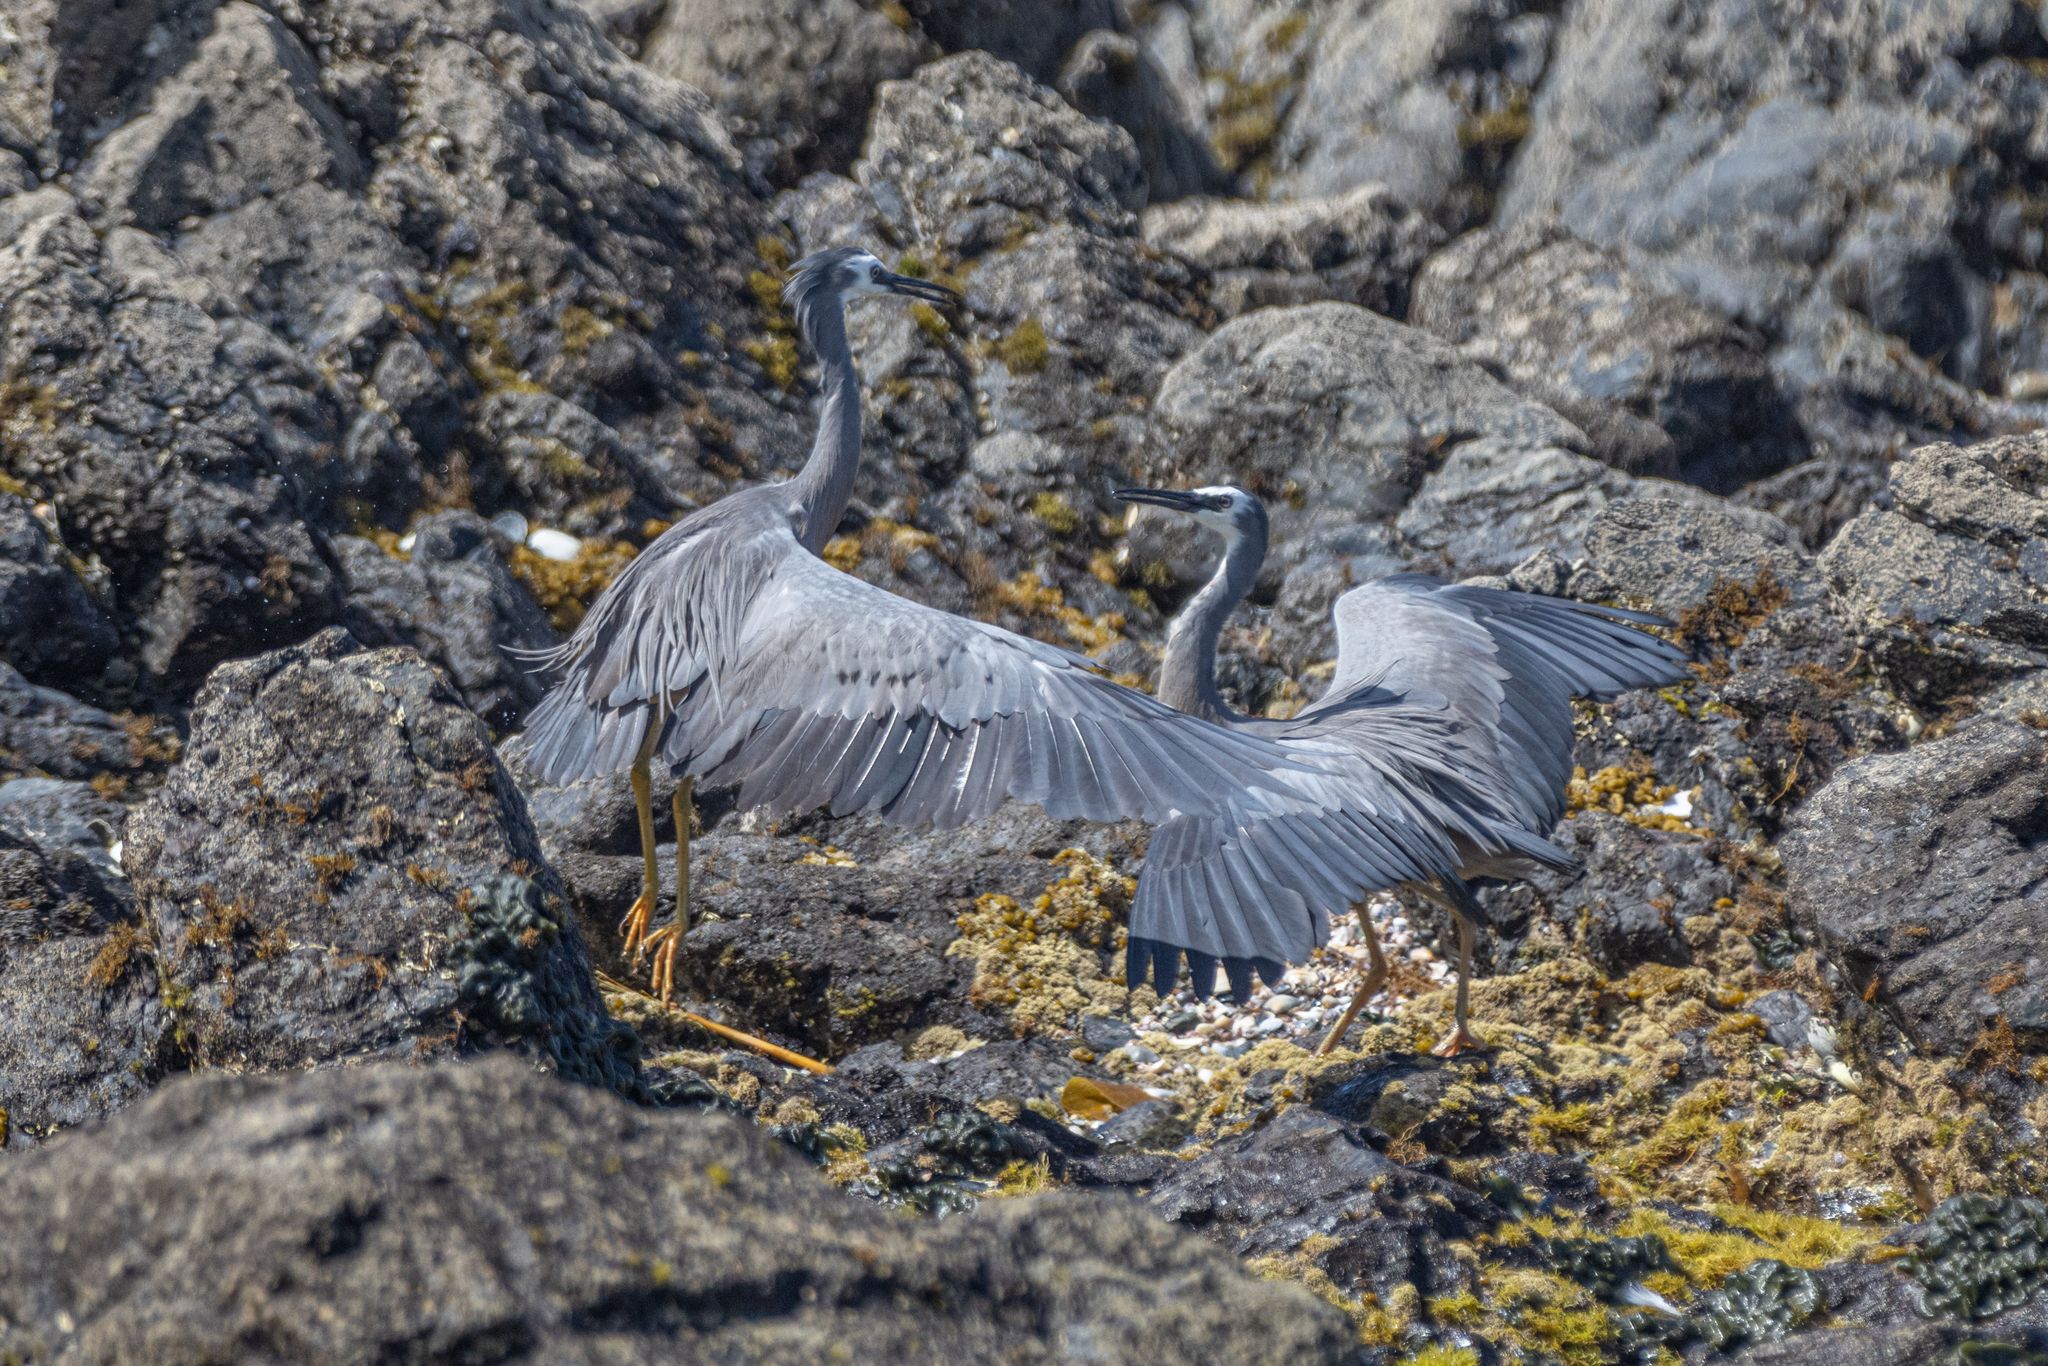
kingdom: Animalia
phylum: Chordata
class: Aves
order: Pelecaniformes
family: Ardeidae
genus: Egretta
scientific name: Egretta novaehollandiae
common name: White-faced heron
